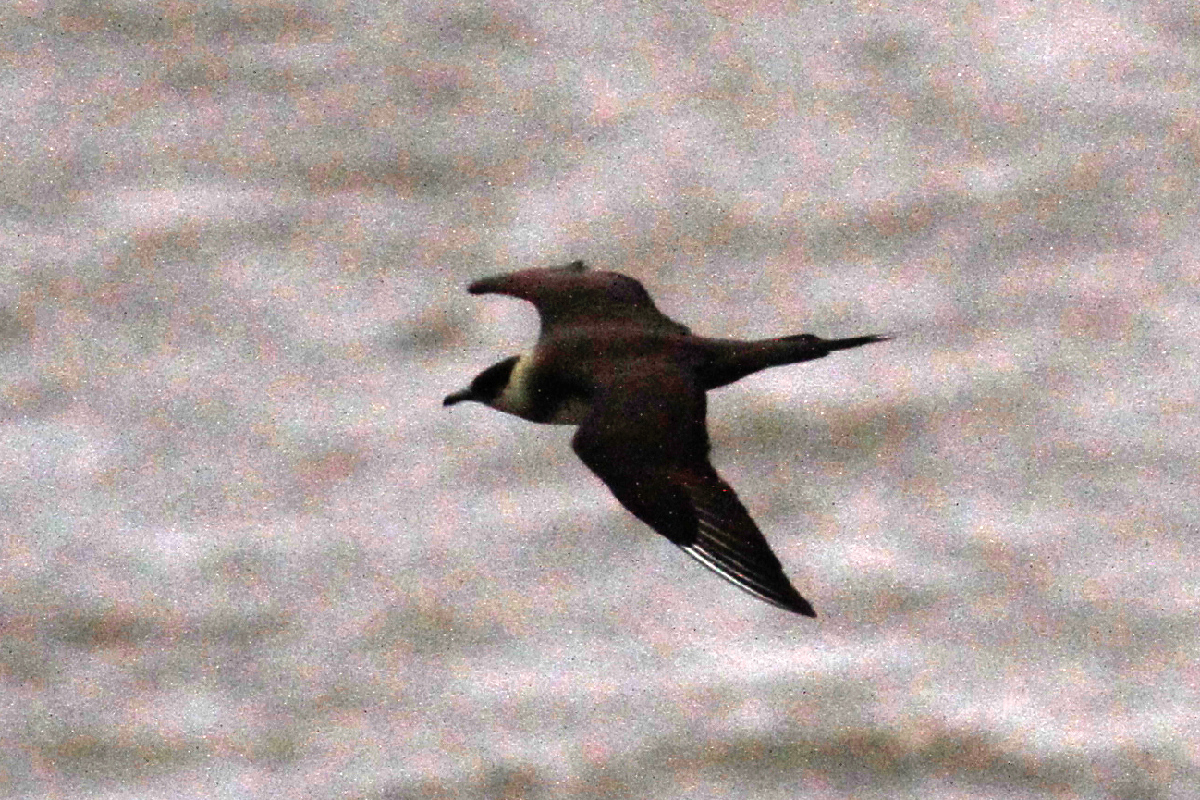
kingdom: Animalia
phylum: Chordata
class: Aves
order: Charadriiformes
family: Stercorariidae
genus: Stercorarius
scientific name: Stercorarius parasiticus
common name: Parasitic jaeger
